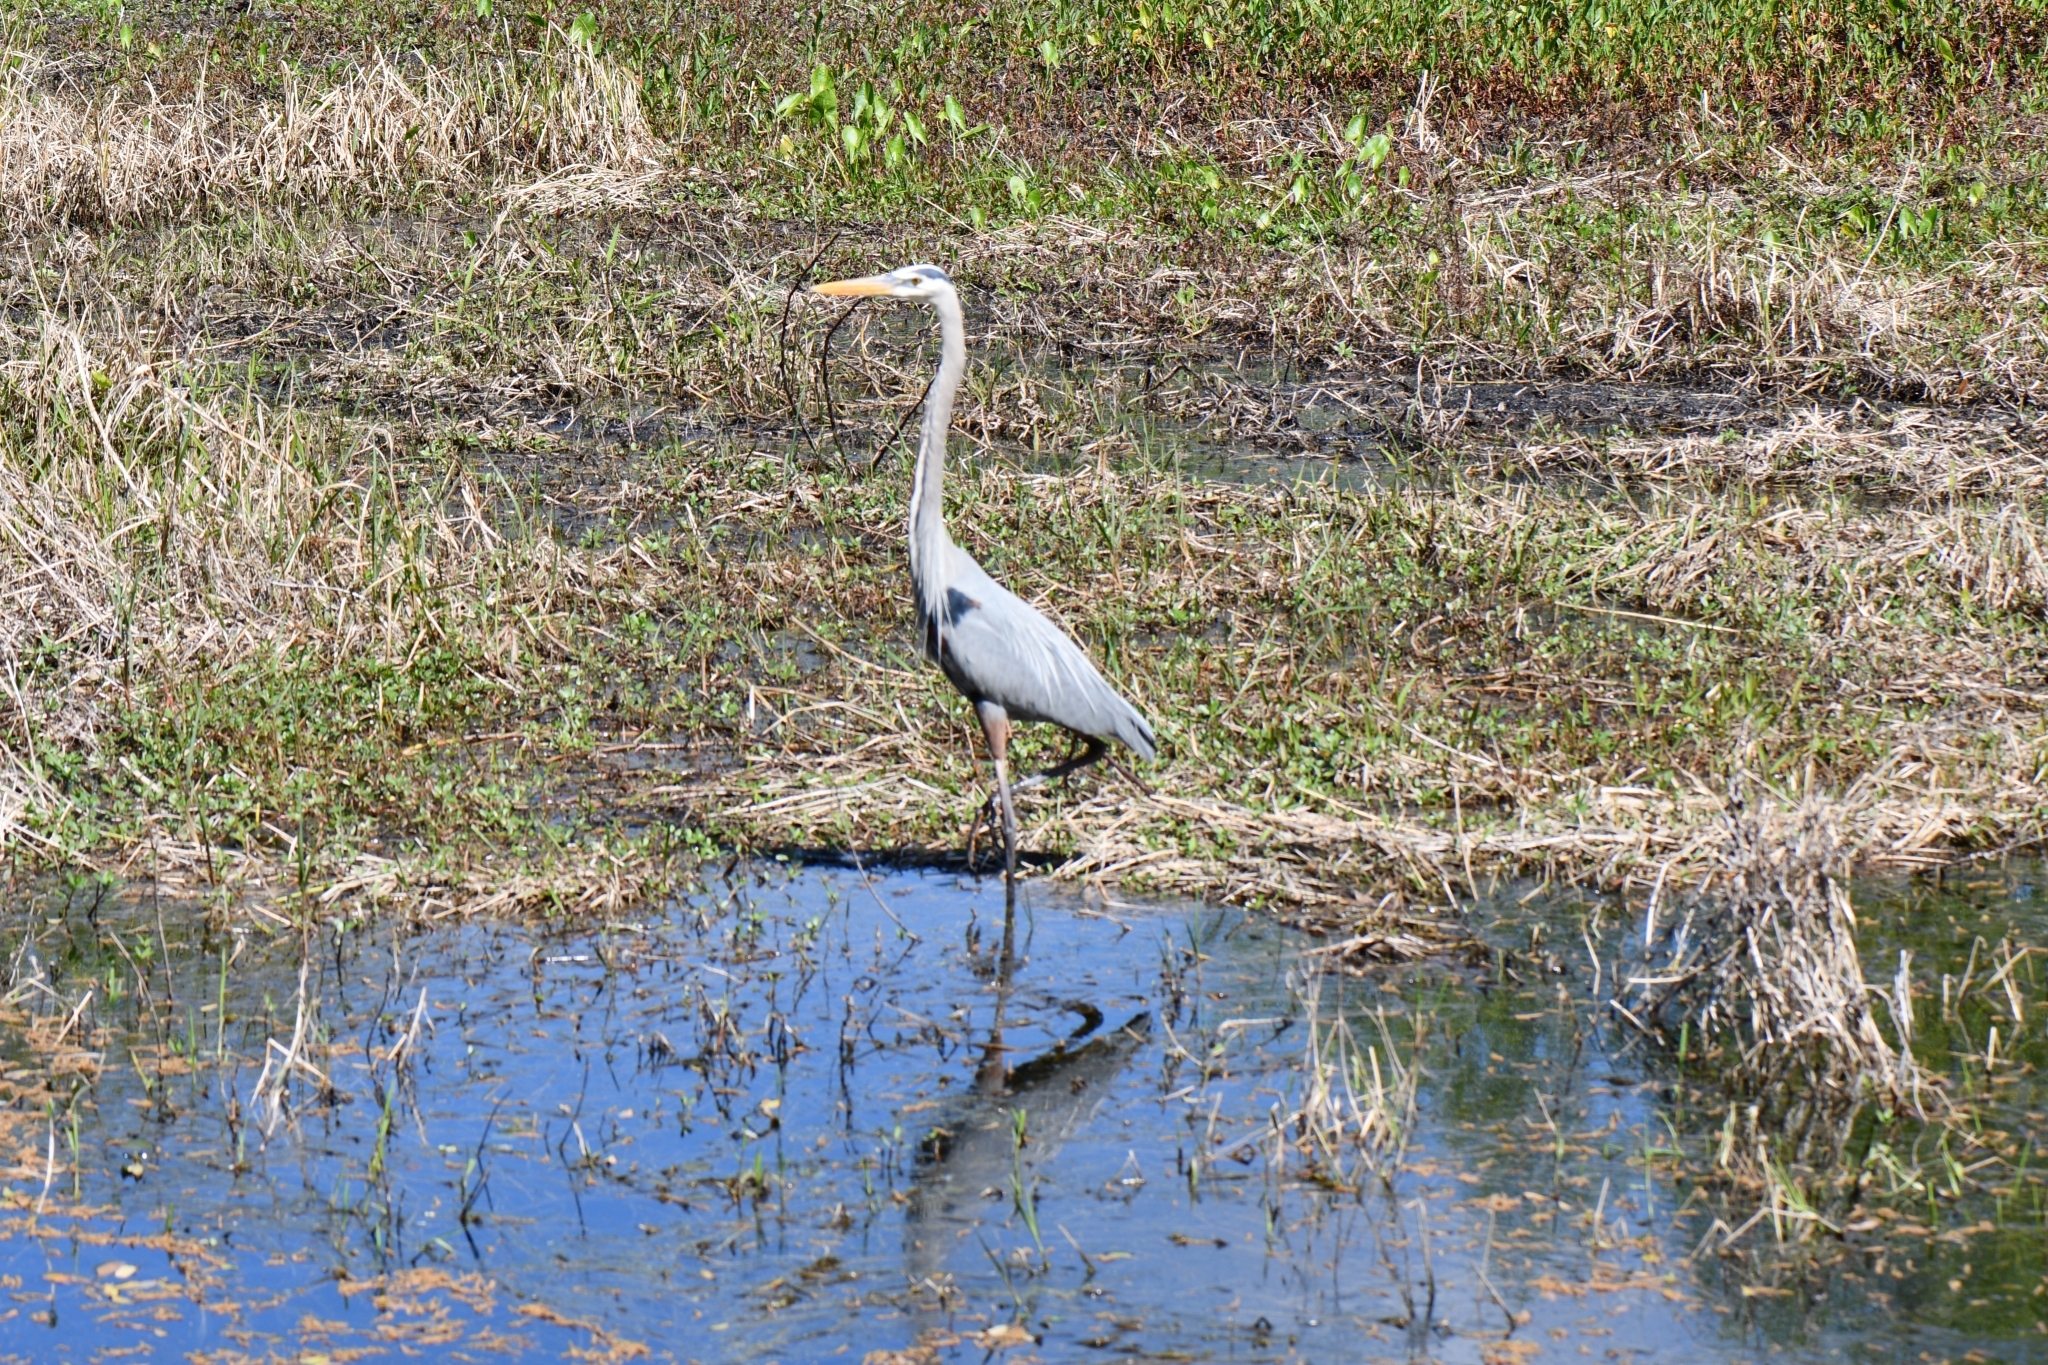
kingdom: Animalia
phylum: Chordata
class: Aves
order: Pelecaniformes
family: Ardeidae
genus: Ardea
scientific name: Ardea herodias
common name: Great blue heron
